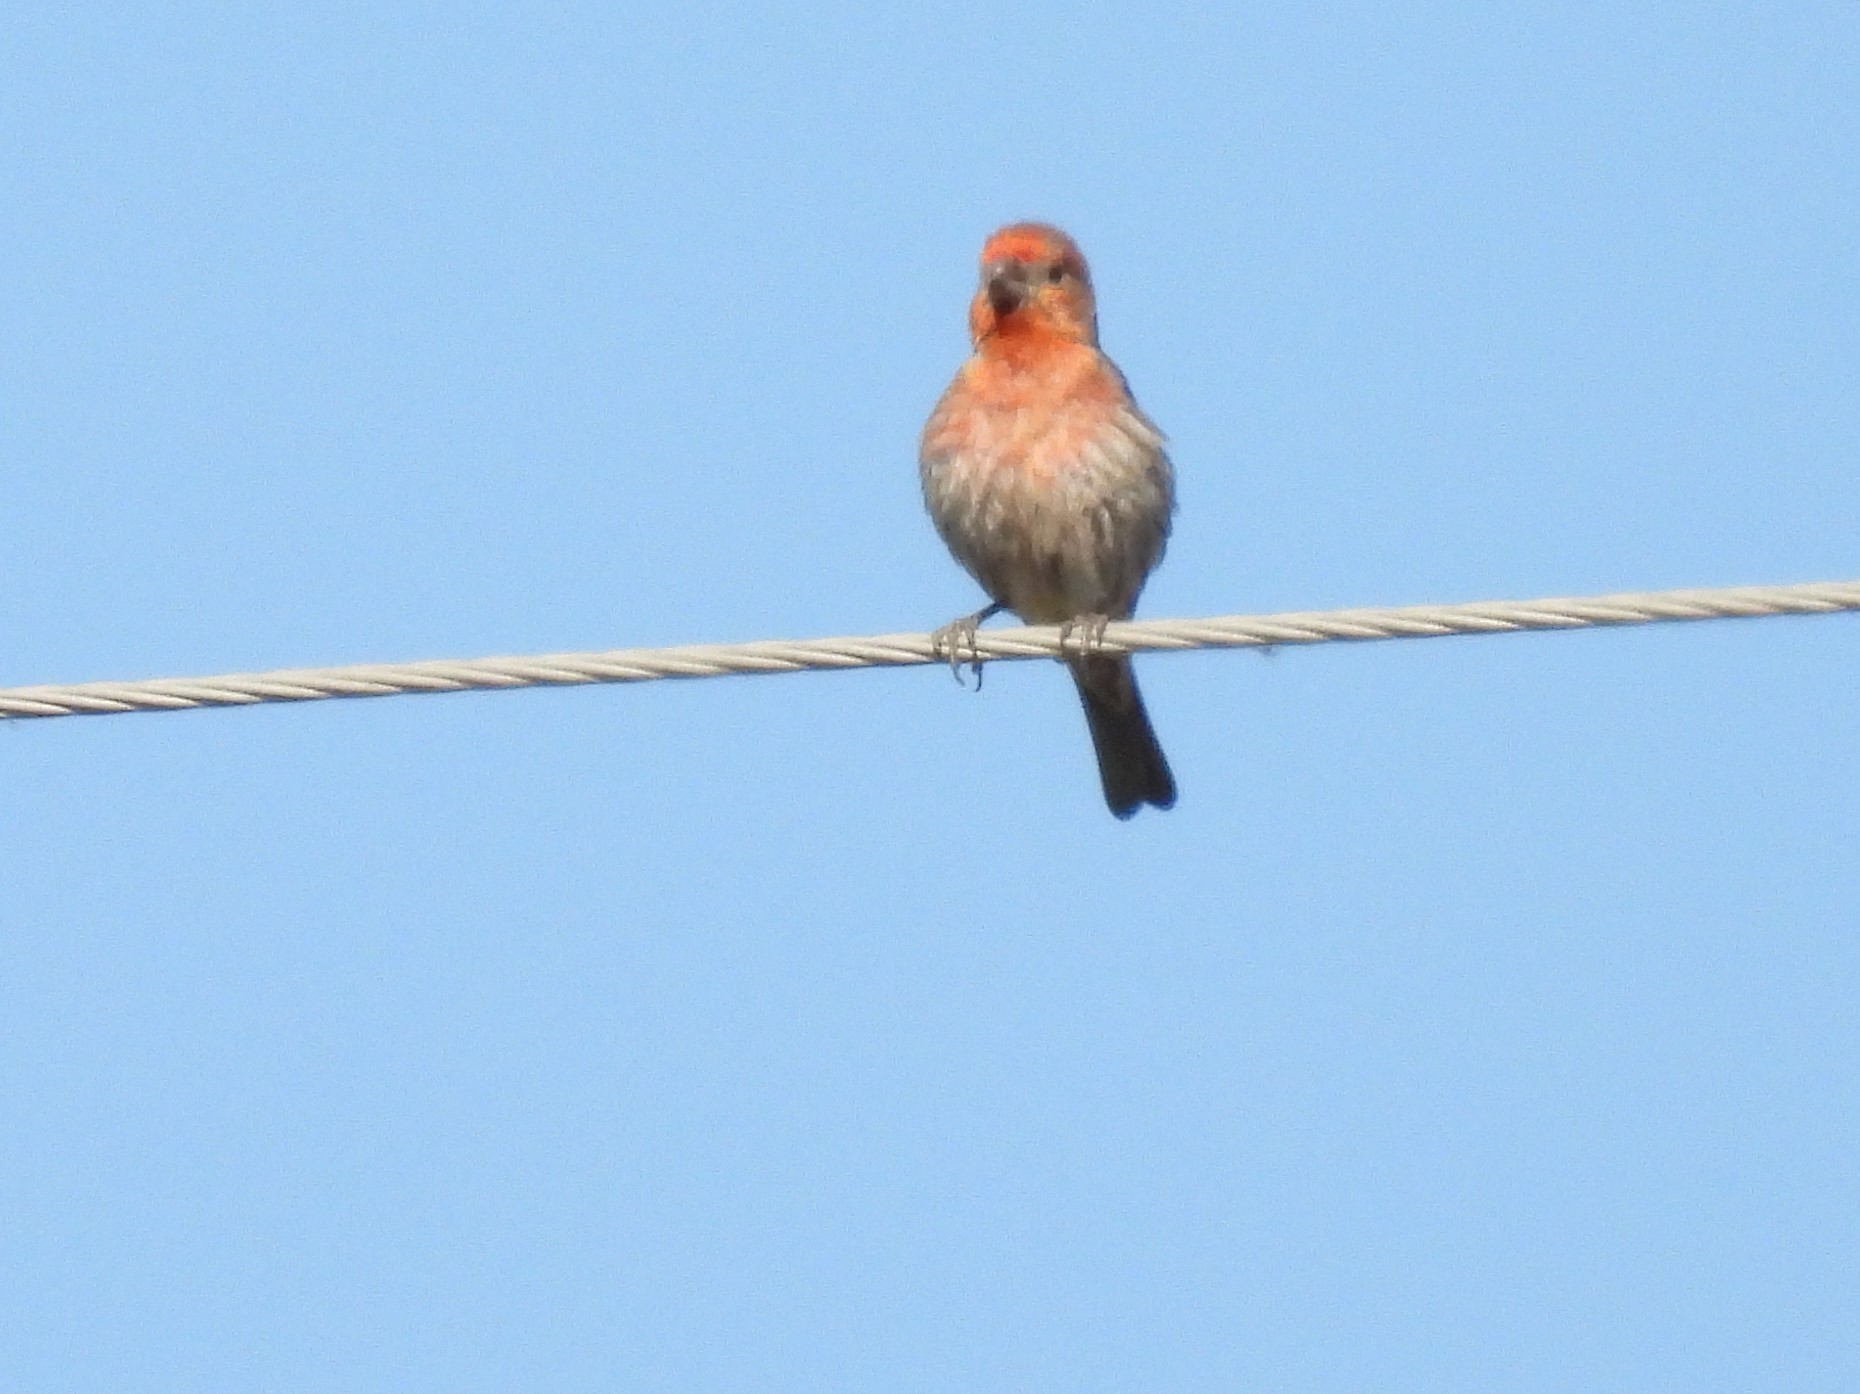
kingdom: Animalia
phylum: Chordata
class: Aves
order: Passeriformes
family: Fringillidae
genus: Haemorhous
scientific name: Haemorhous mexicanus
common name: House finch
